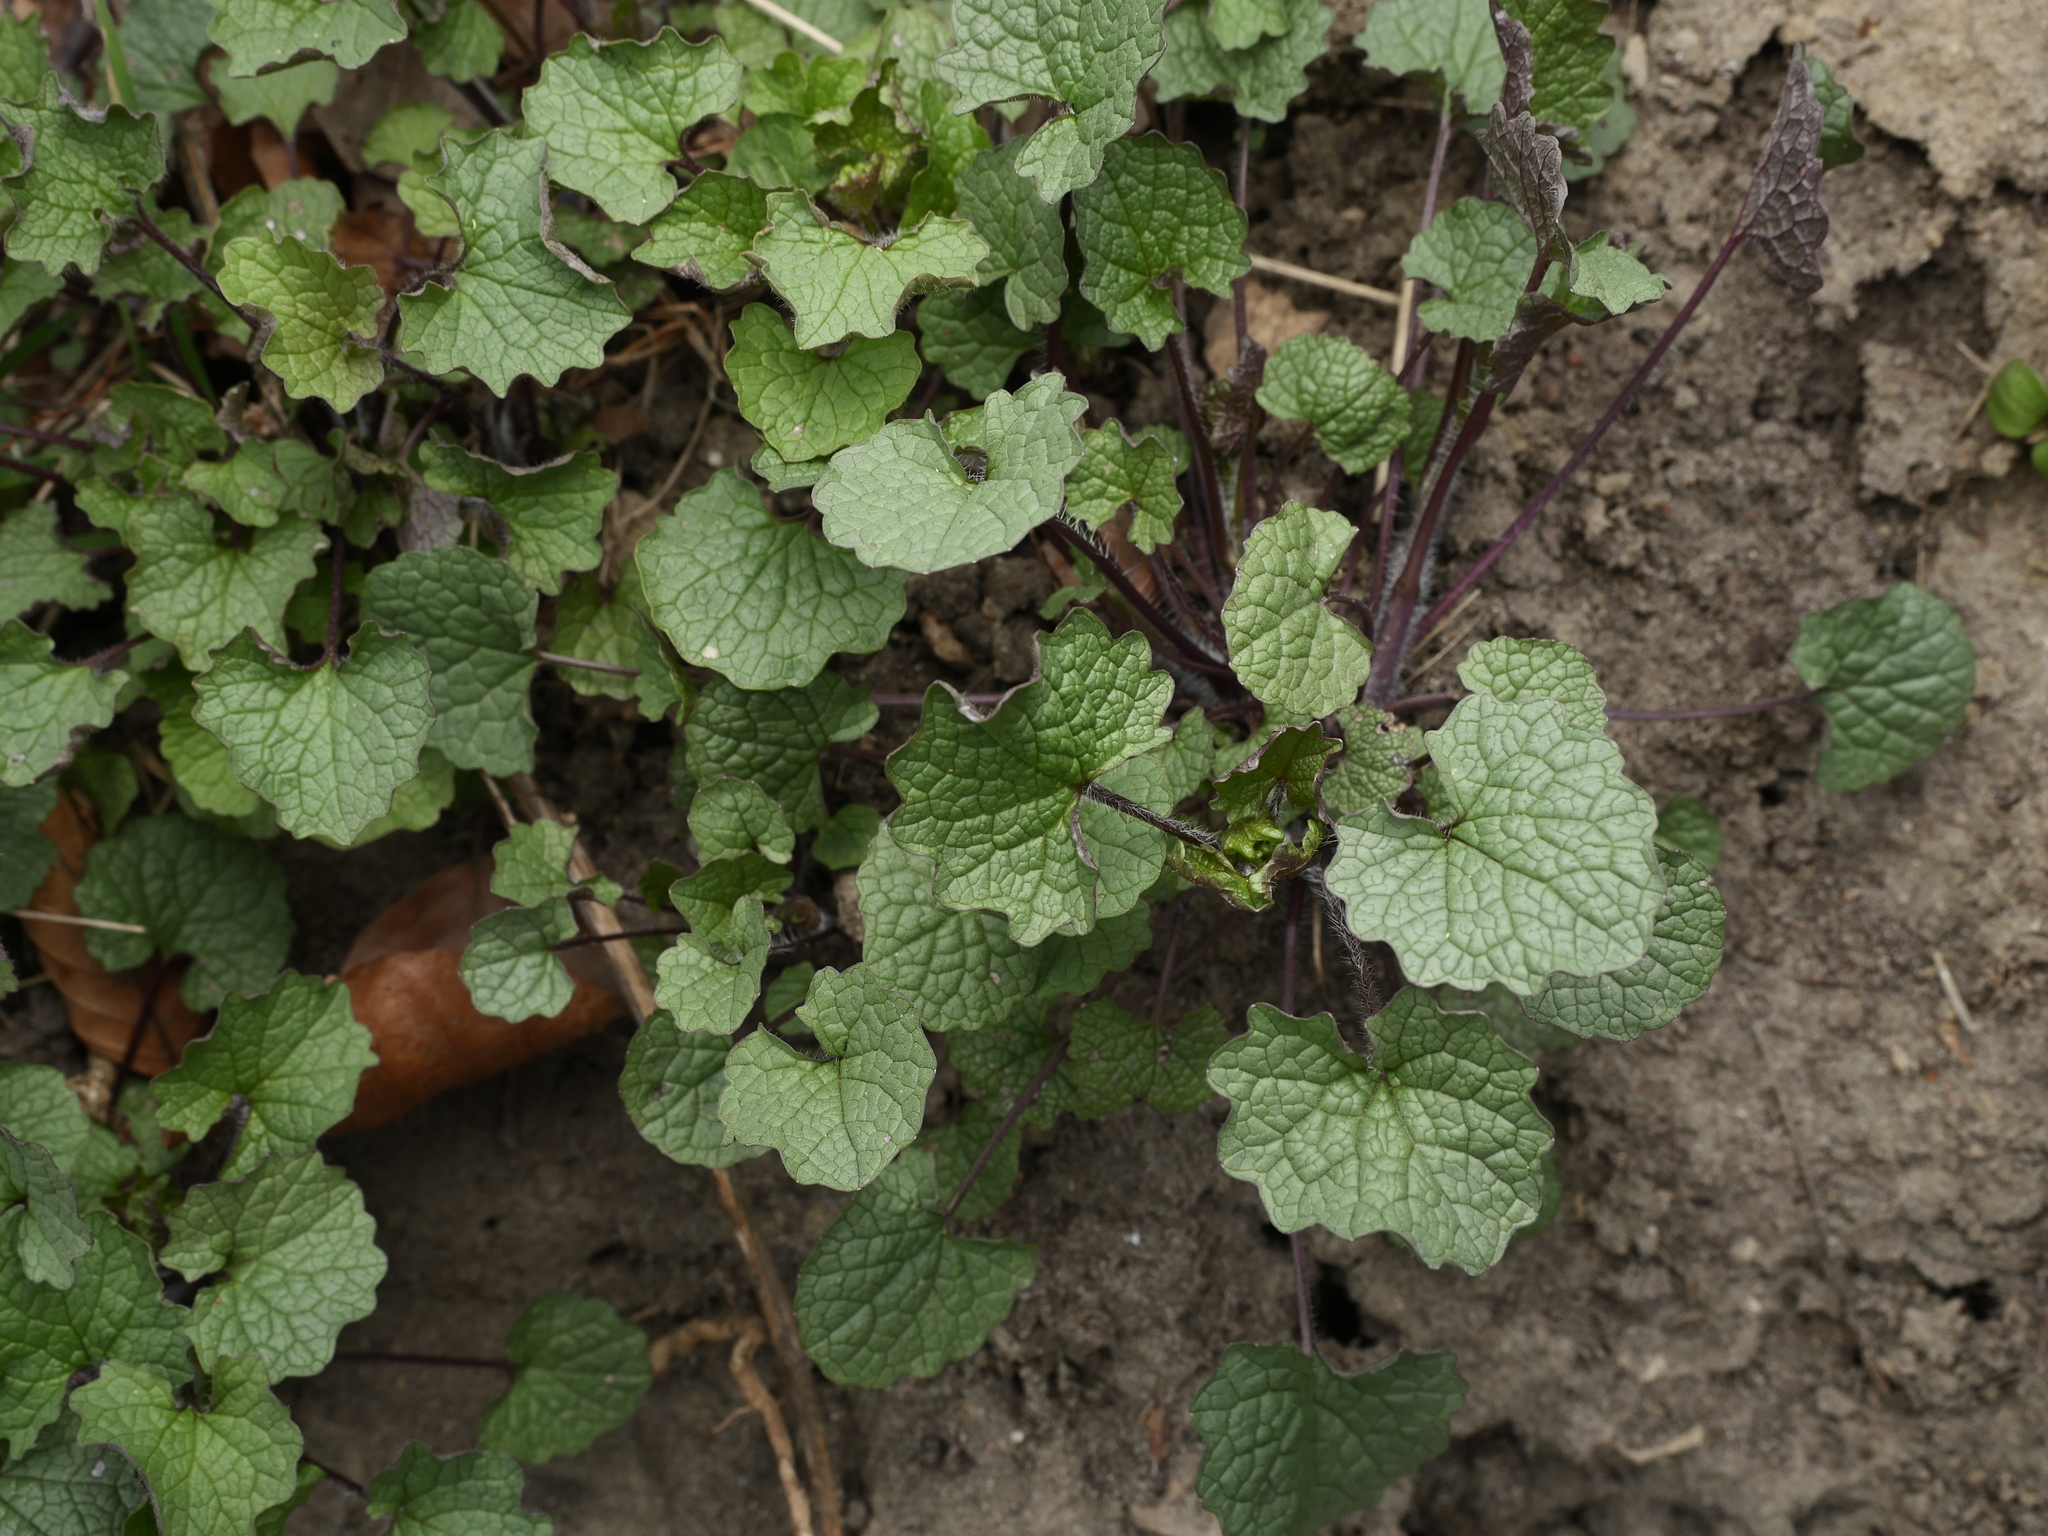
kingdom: Plantae
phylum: Tracheophyta
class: Magnoliopsida
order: Brassicales
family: Brassicaceae
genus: Alliaria
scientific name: Alliaria petiolata
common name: Garlic mustard
